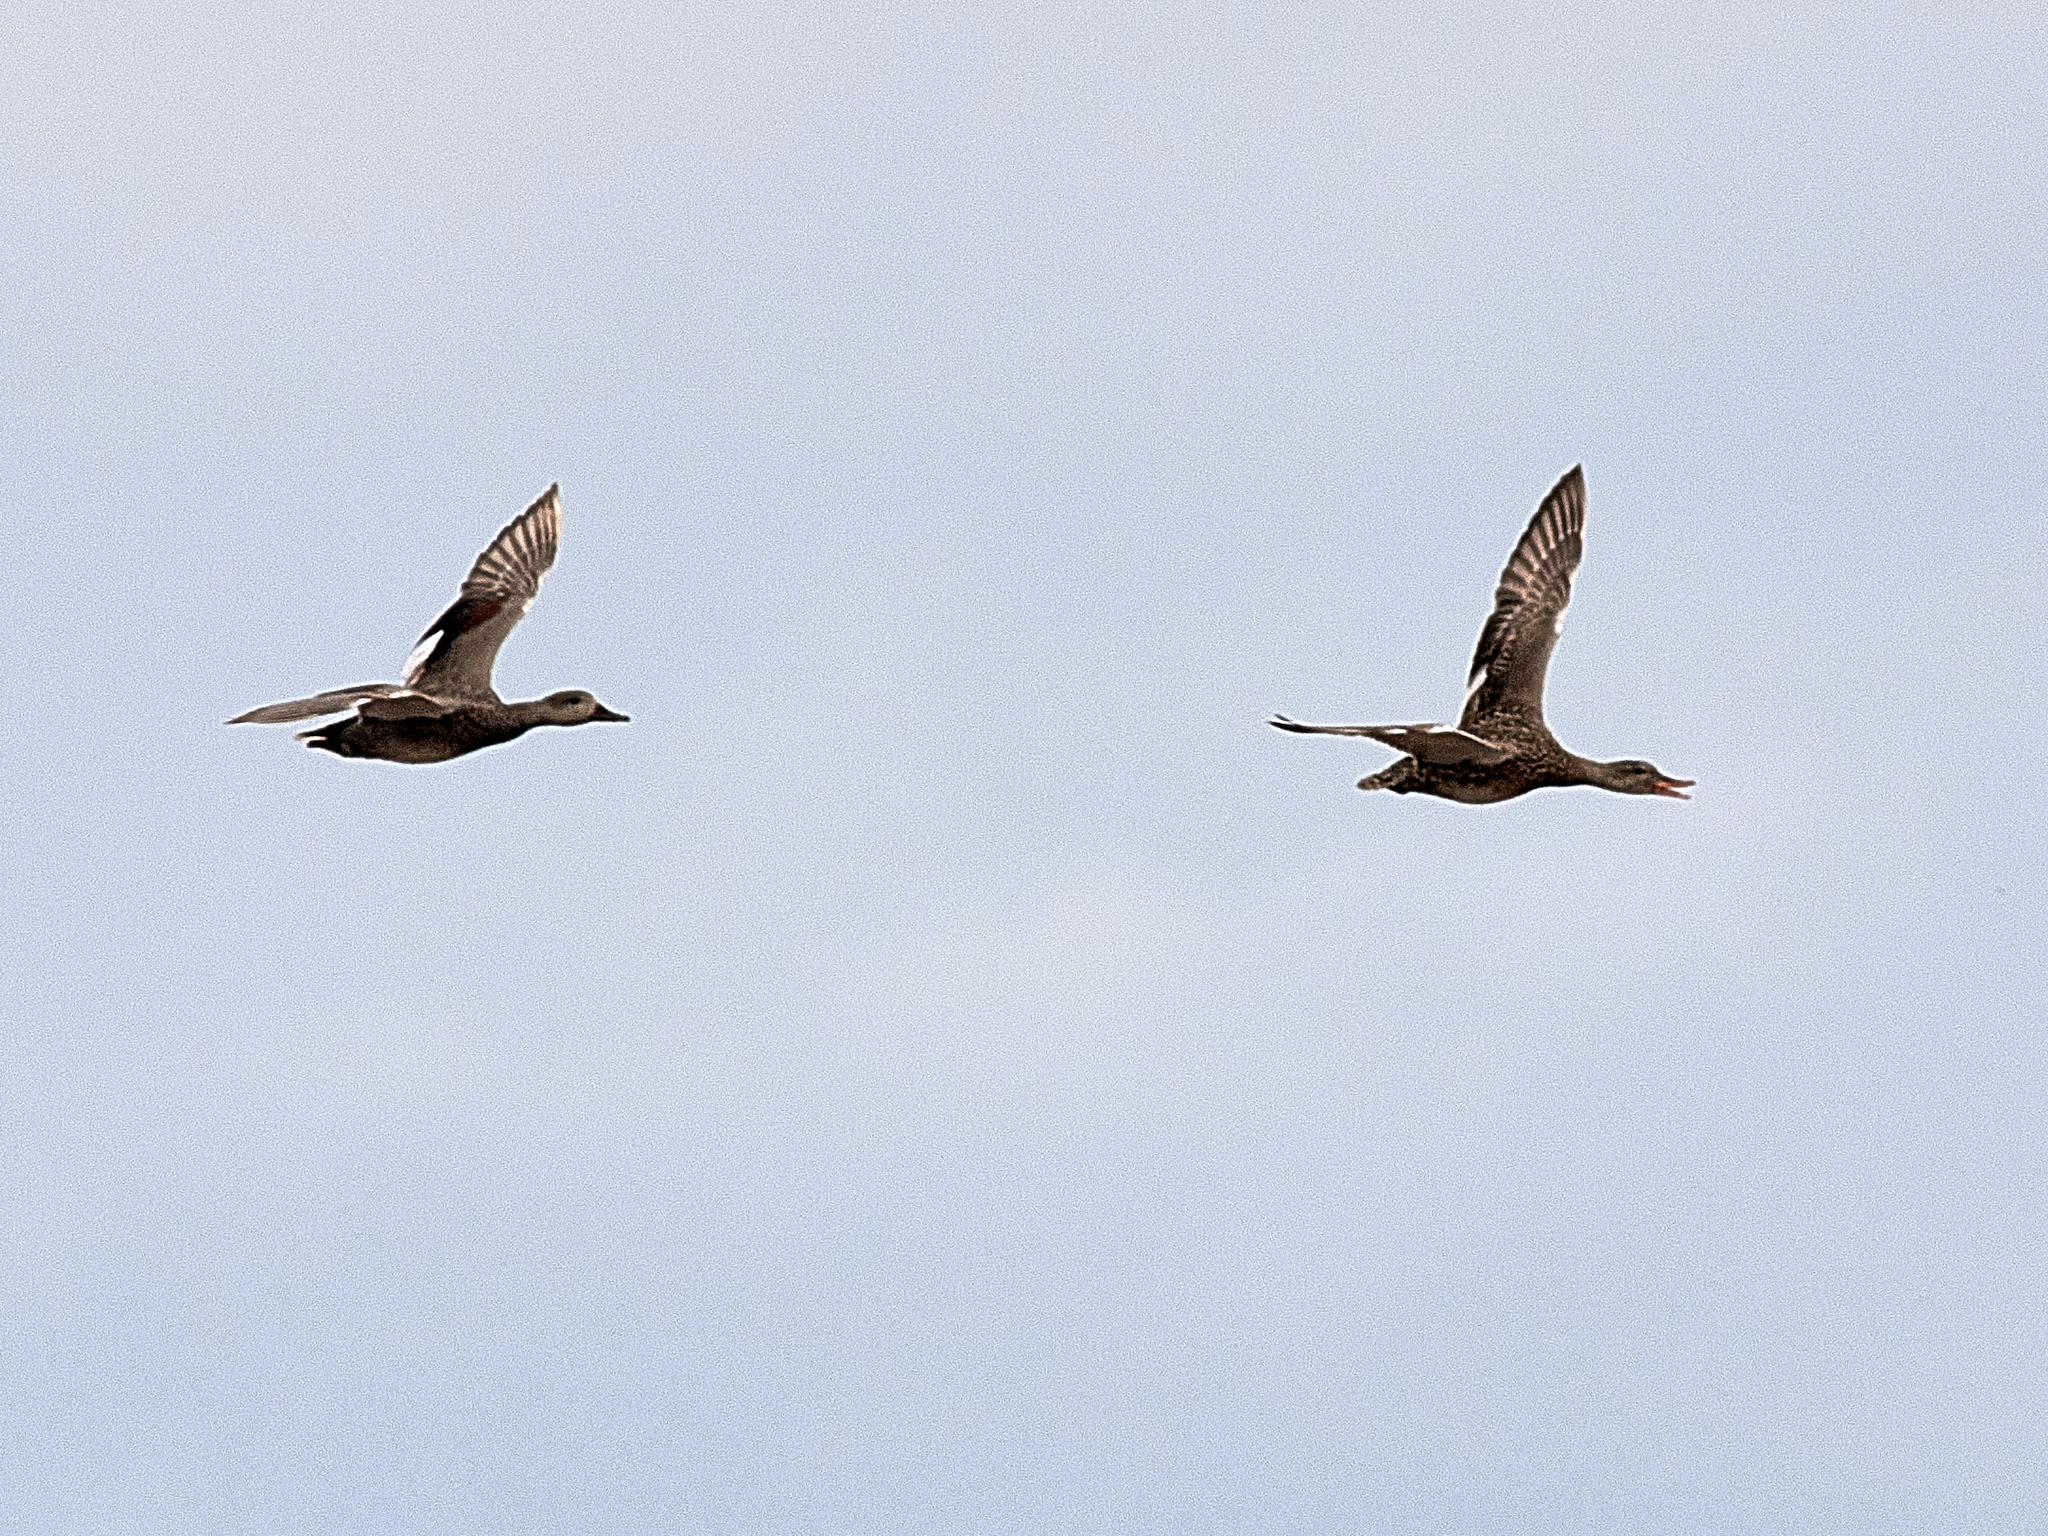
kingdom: Animalia
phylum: Chordata
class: Aves
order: Anseriformes
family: Anatidae
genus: Mareca
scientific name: Mareca strepera
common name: Gadwall
